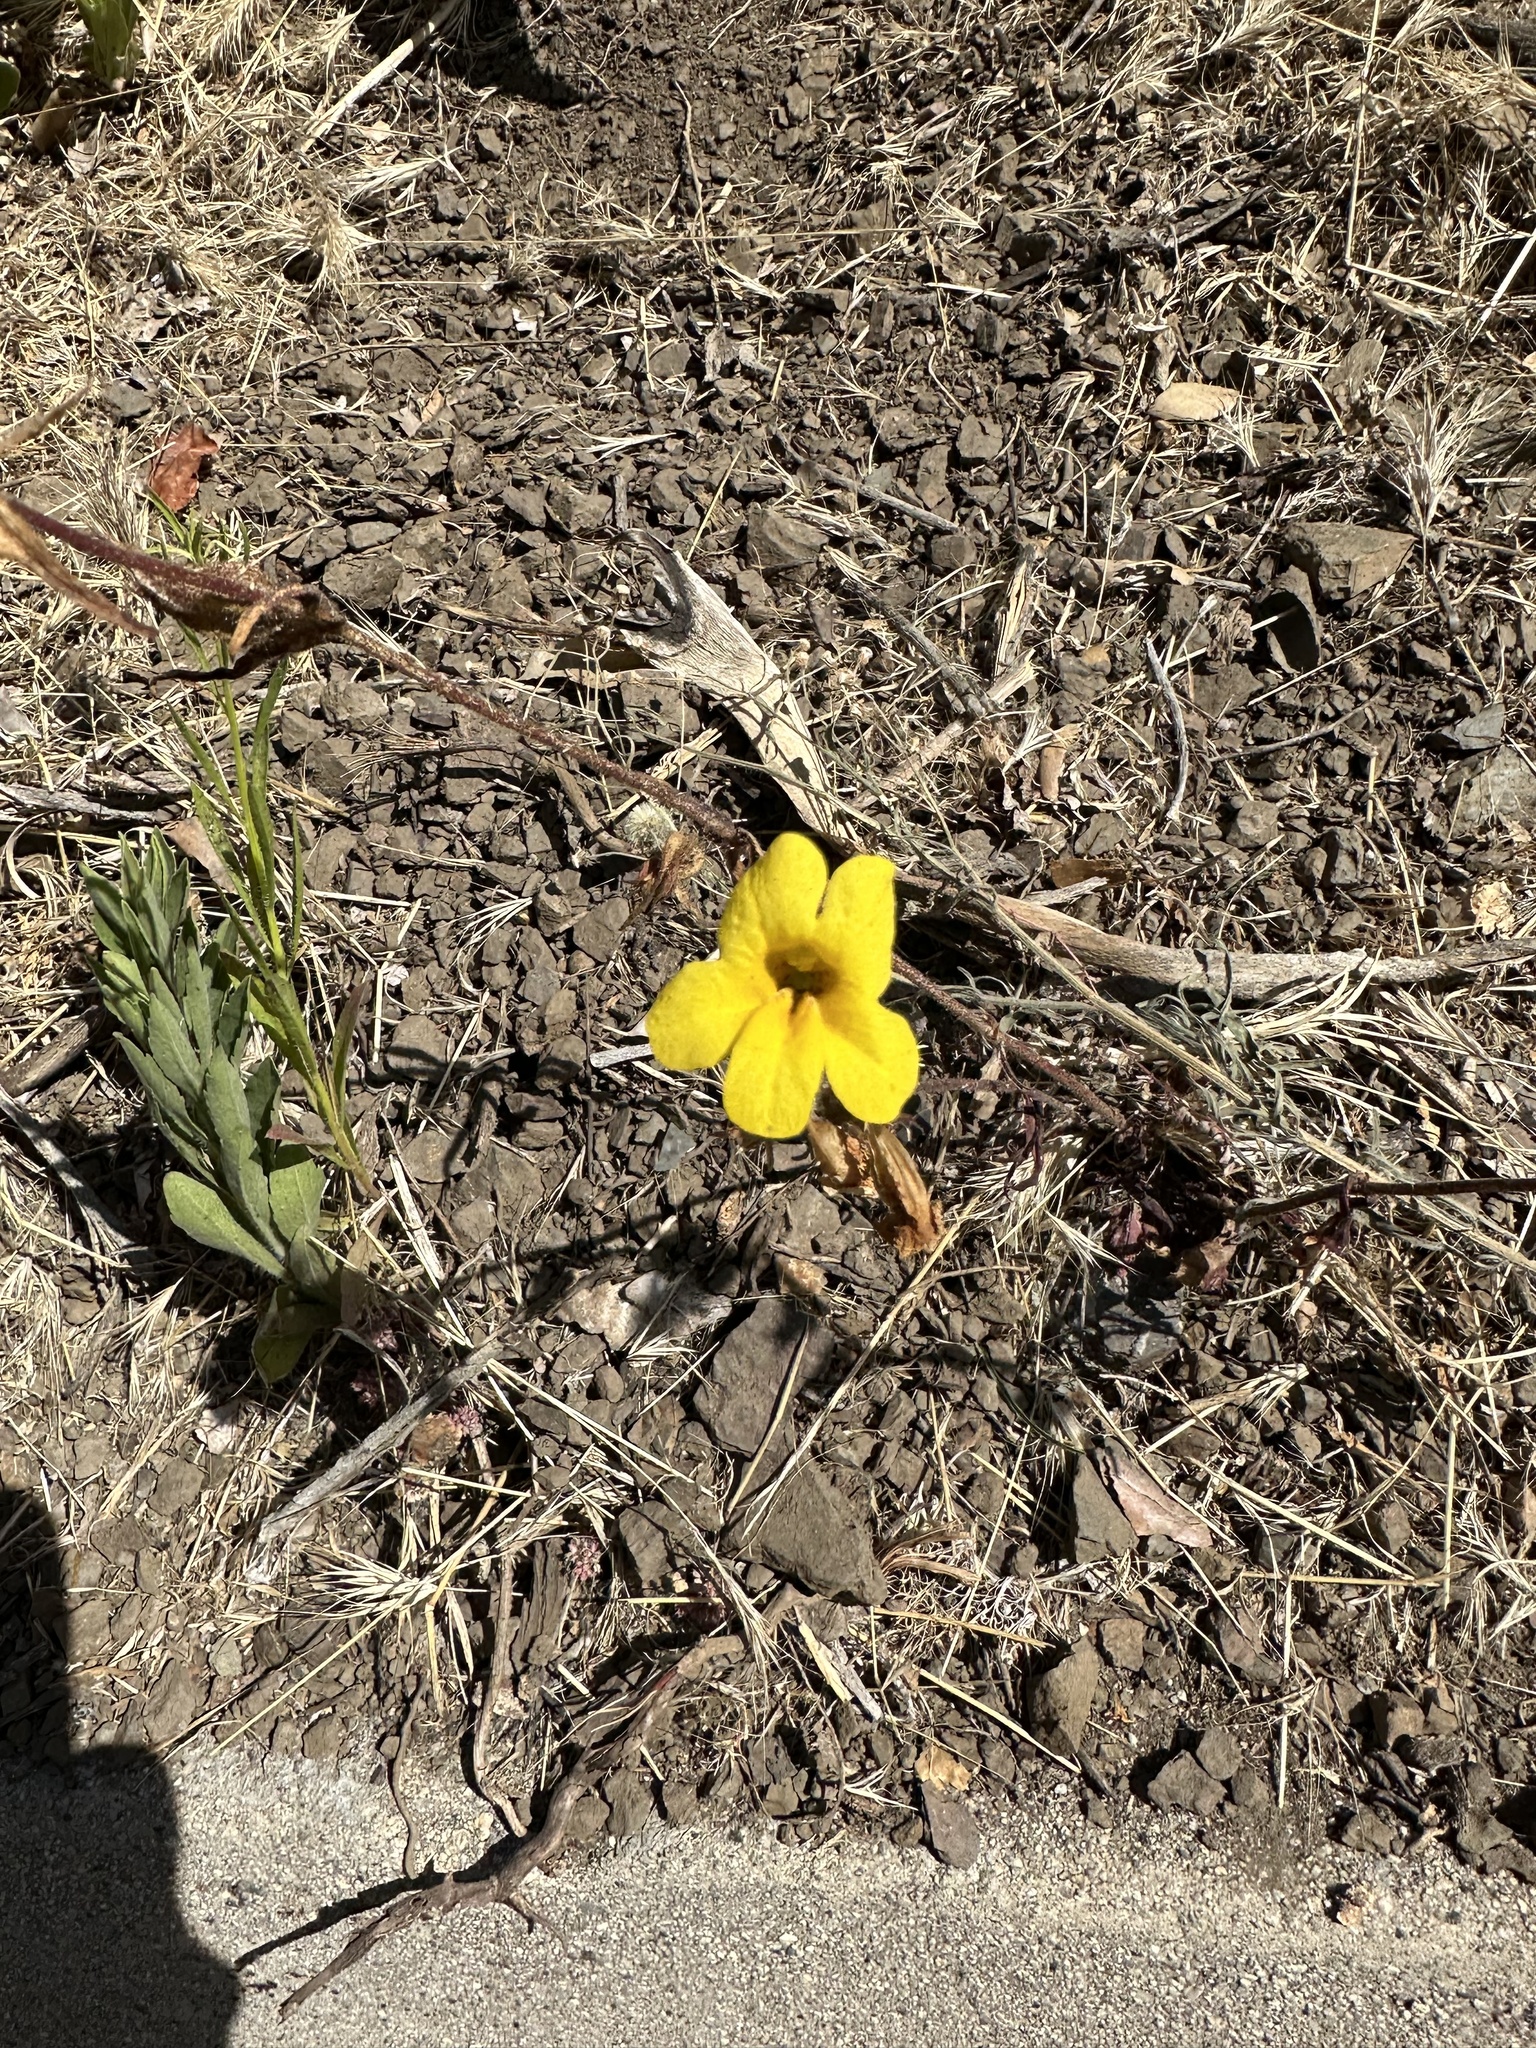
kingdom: Plantae
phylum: Tracheophyta
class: Magnoliopsida
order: Lamiales
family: Phrymaceae
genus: Diplacus
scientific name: Diplacus brevipes
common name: Wide-throat yellow monkey-flower
